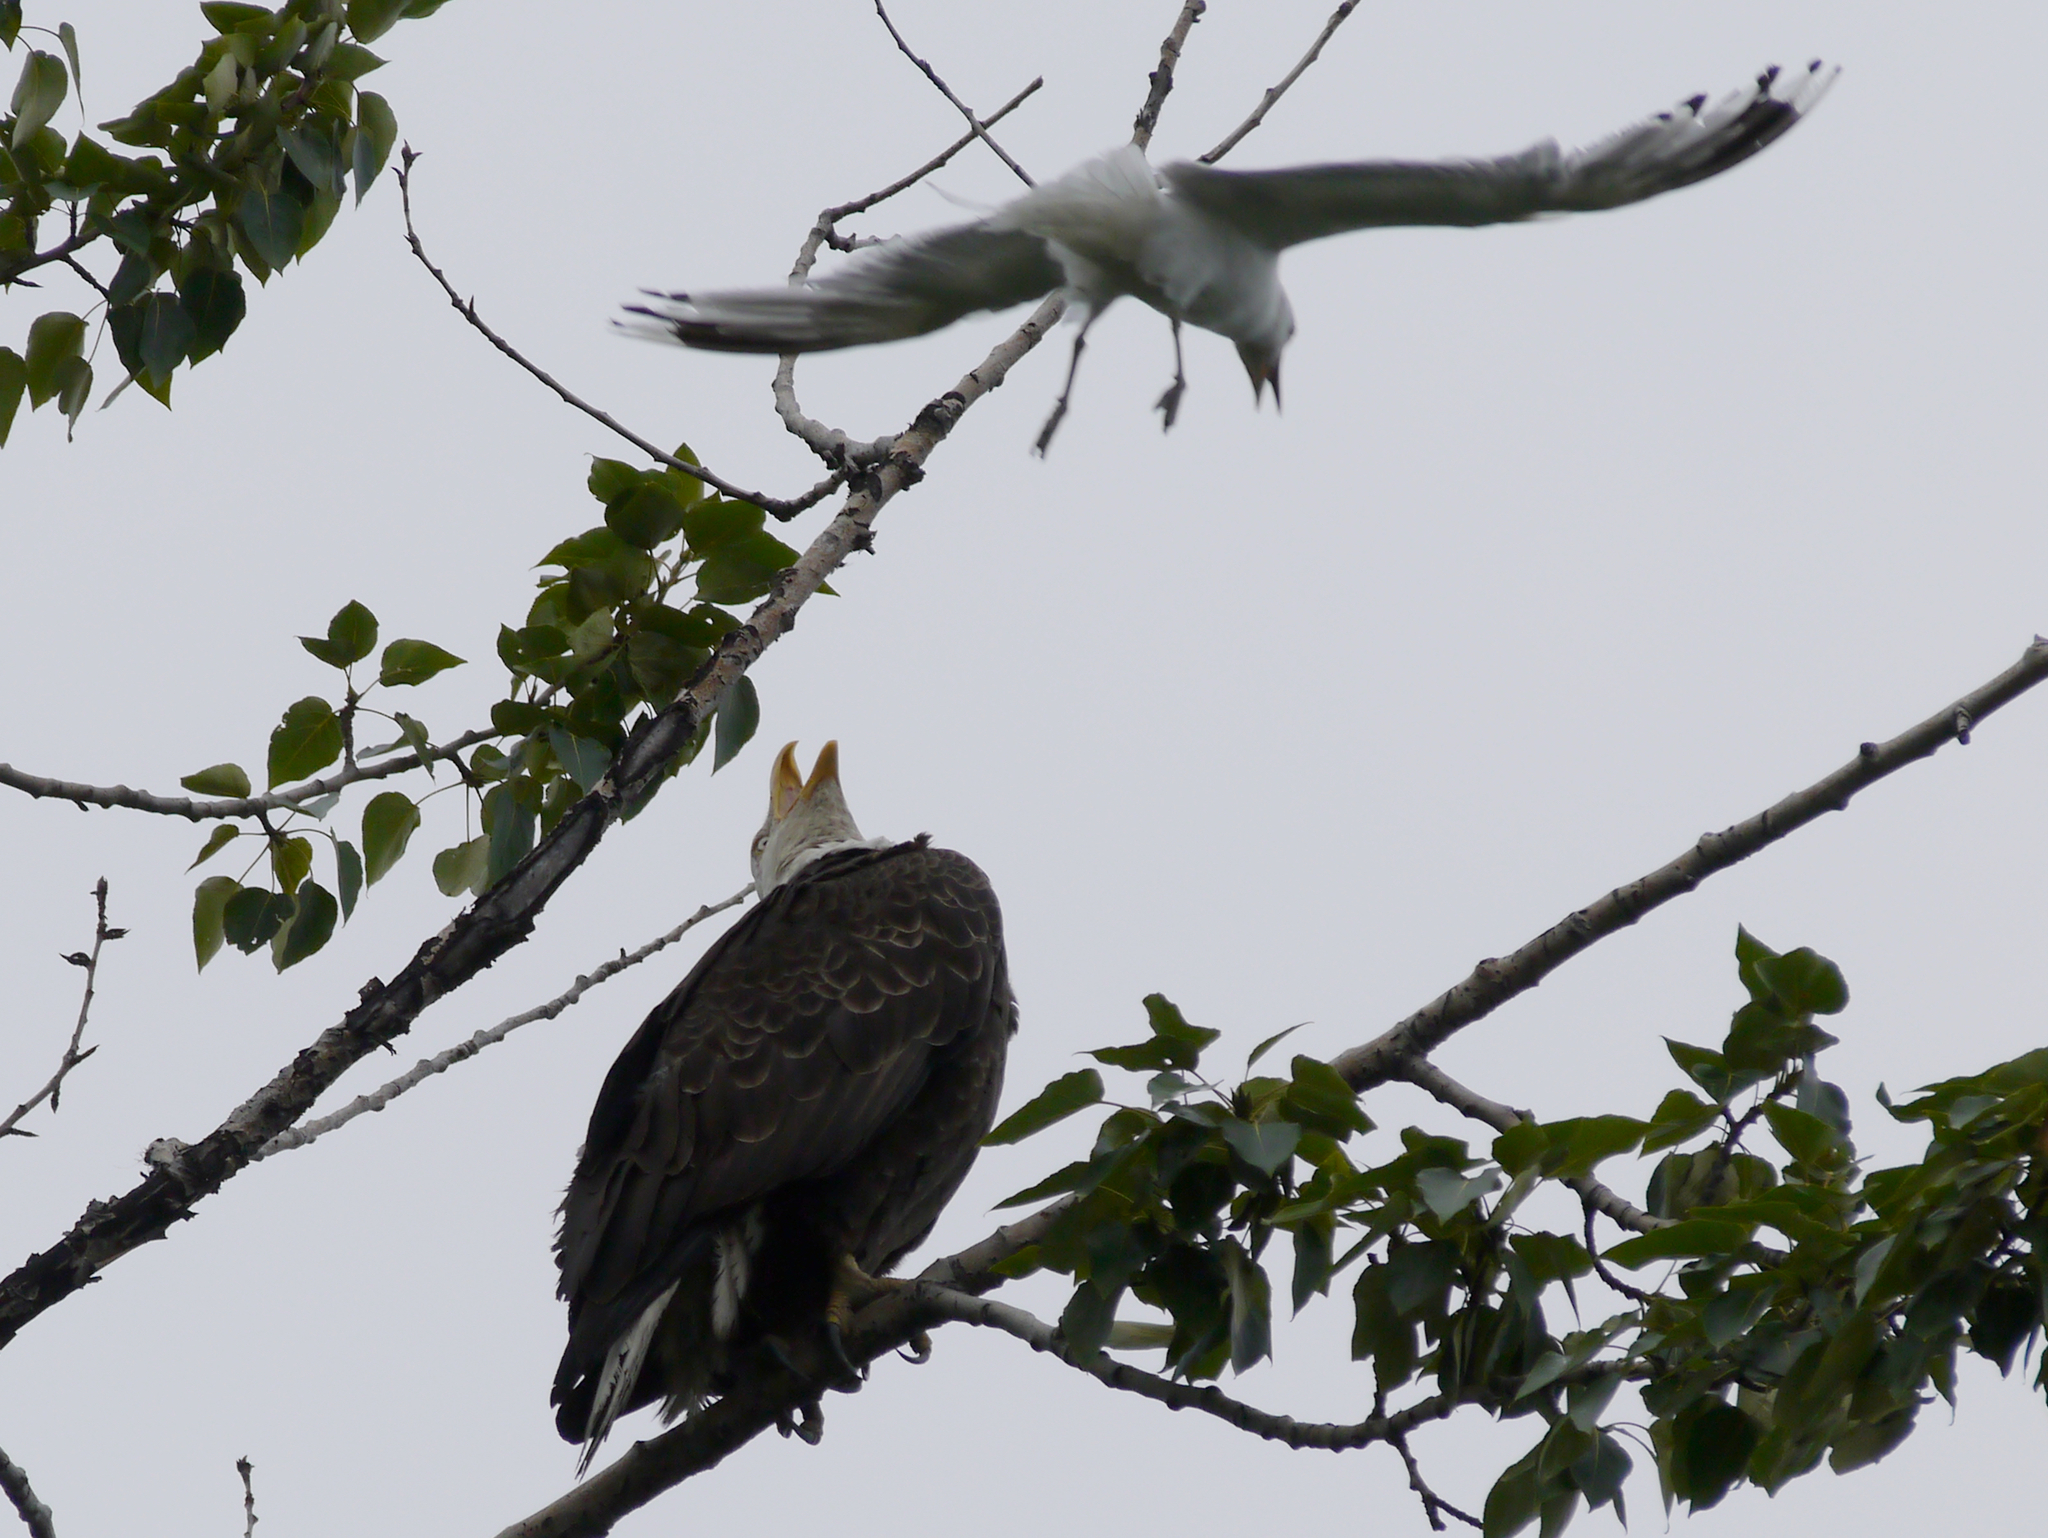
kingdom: Animalia
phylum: Chordata
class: Aves
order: Accipitriformes
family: Accipitridae
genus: Haliaeetus
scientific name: Haliaeetus leucocephalus
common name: Bald eagle
